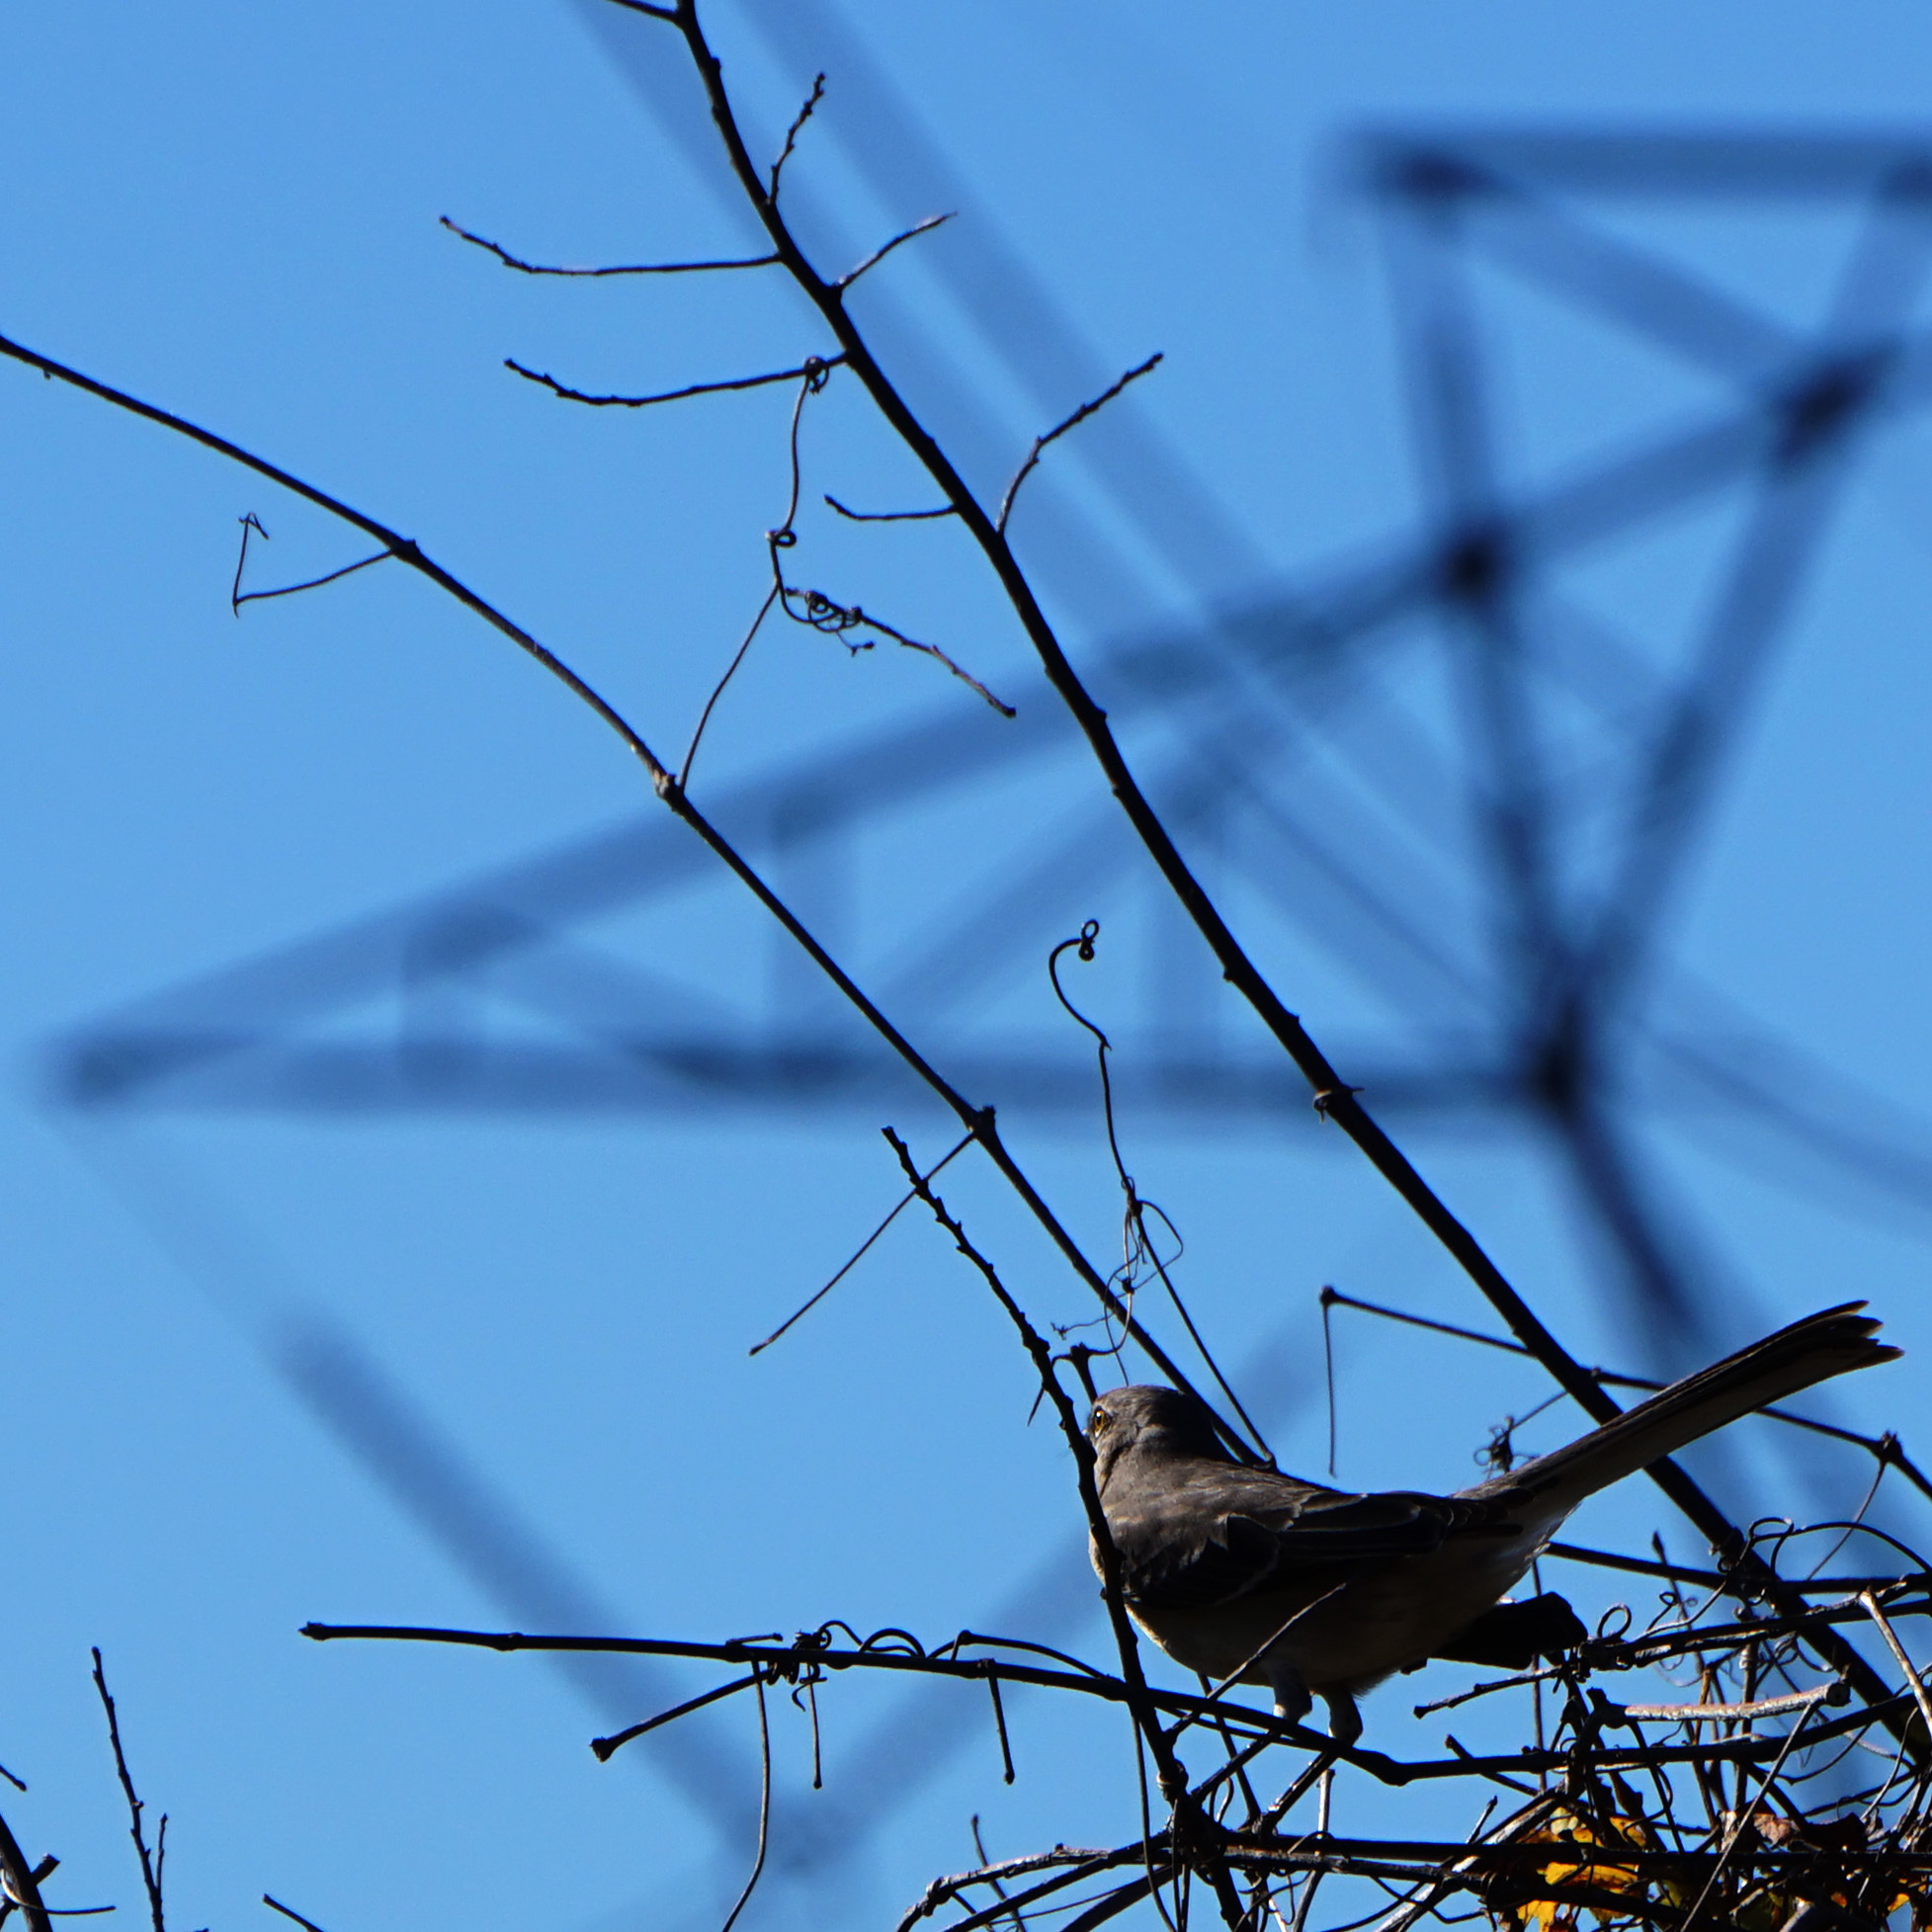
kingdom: Animalia
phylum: Chordata
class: Aves
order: Passeriformes
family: Mimidae
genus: Mimus
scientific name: Mimus polyglottos
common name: Northern mockingbird
